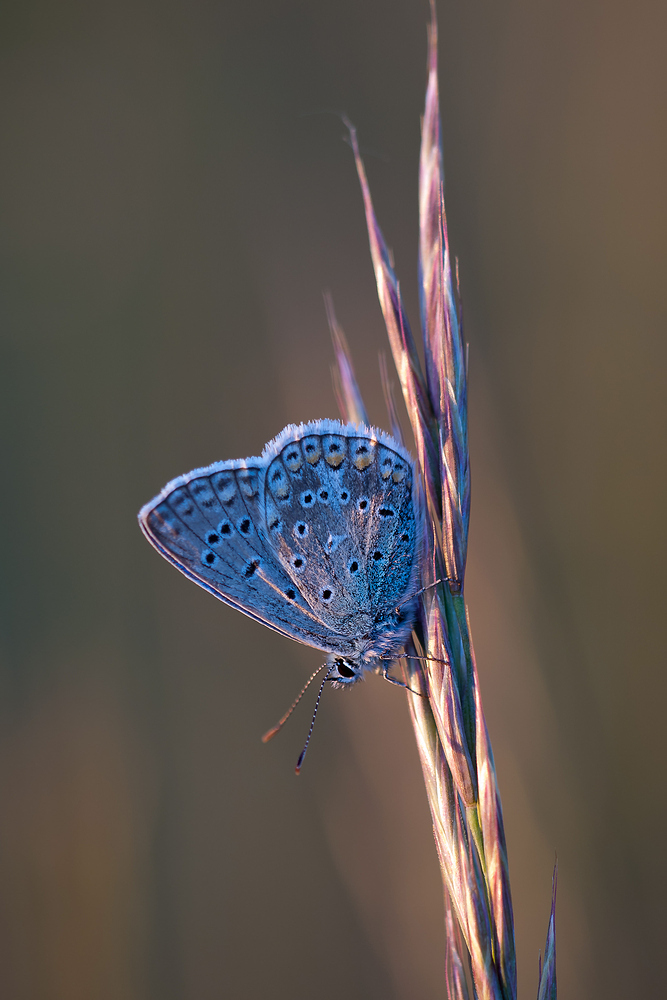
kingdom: Animalia
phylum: Arthropoda
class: Insecta
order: Lepidoptera
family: Lycaenidae
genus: Polyommatus
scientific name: Polyommatus icarus
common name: Common blue
